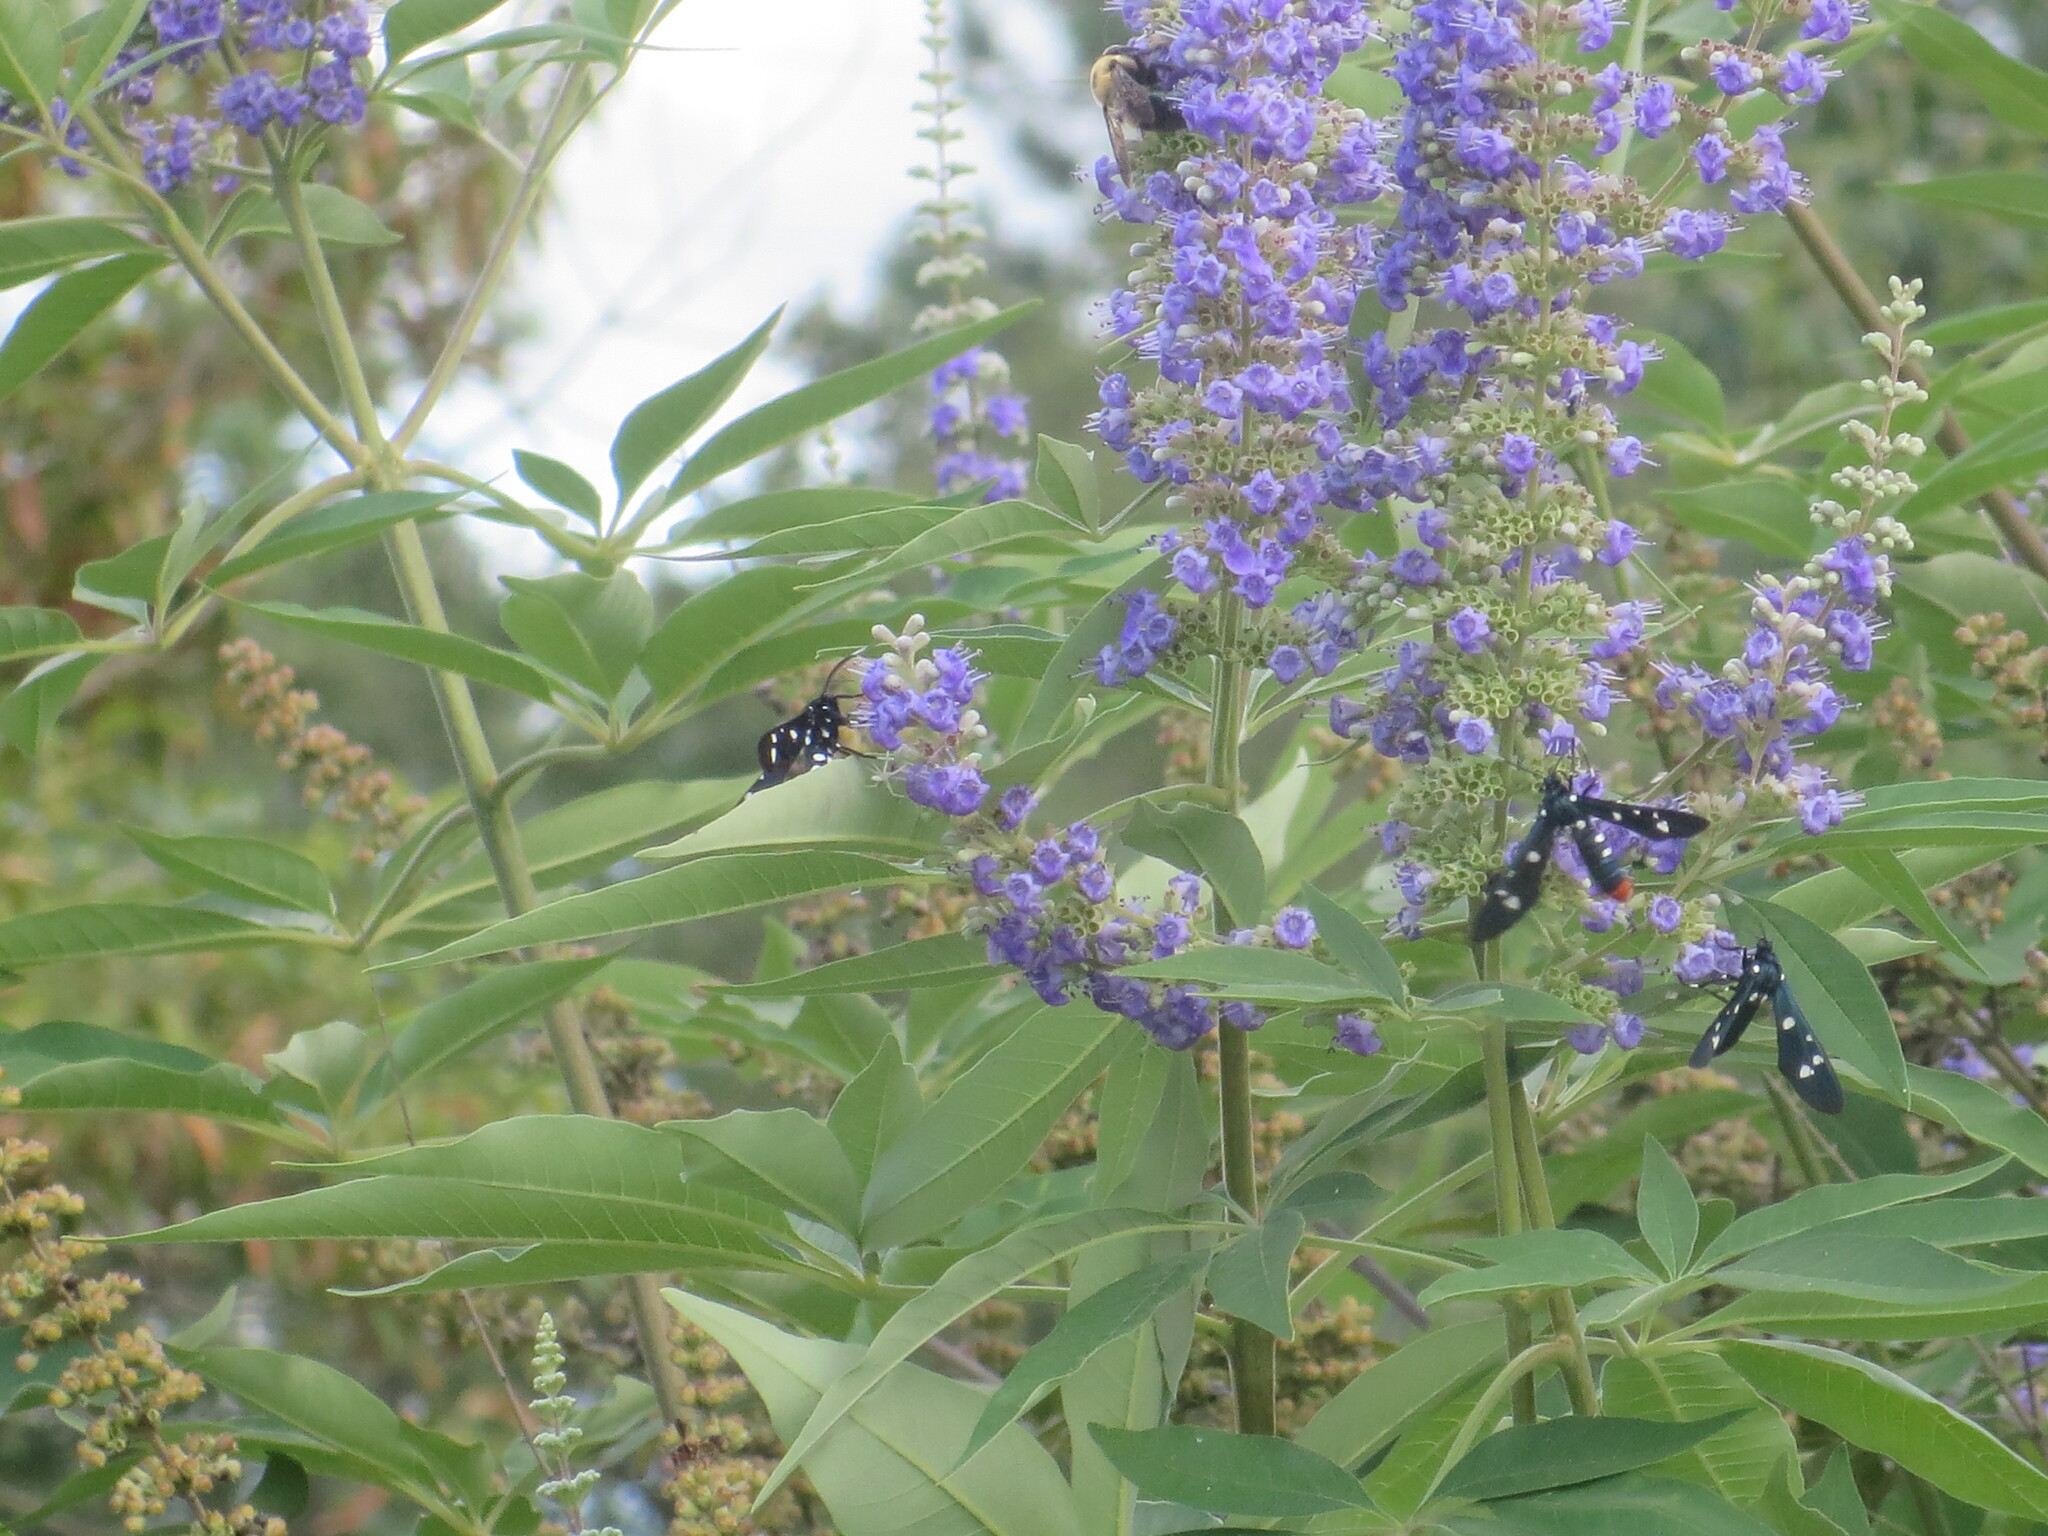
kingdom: Animalia
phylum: Arthropoda
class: Insecta
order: Lepidoptera
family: Erebidae
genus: Syntomeida
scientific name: Syntomeida epilais
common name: Polka-dot wasp moth
